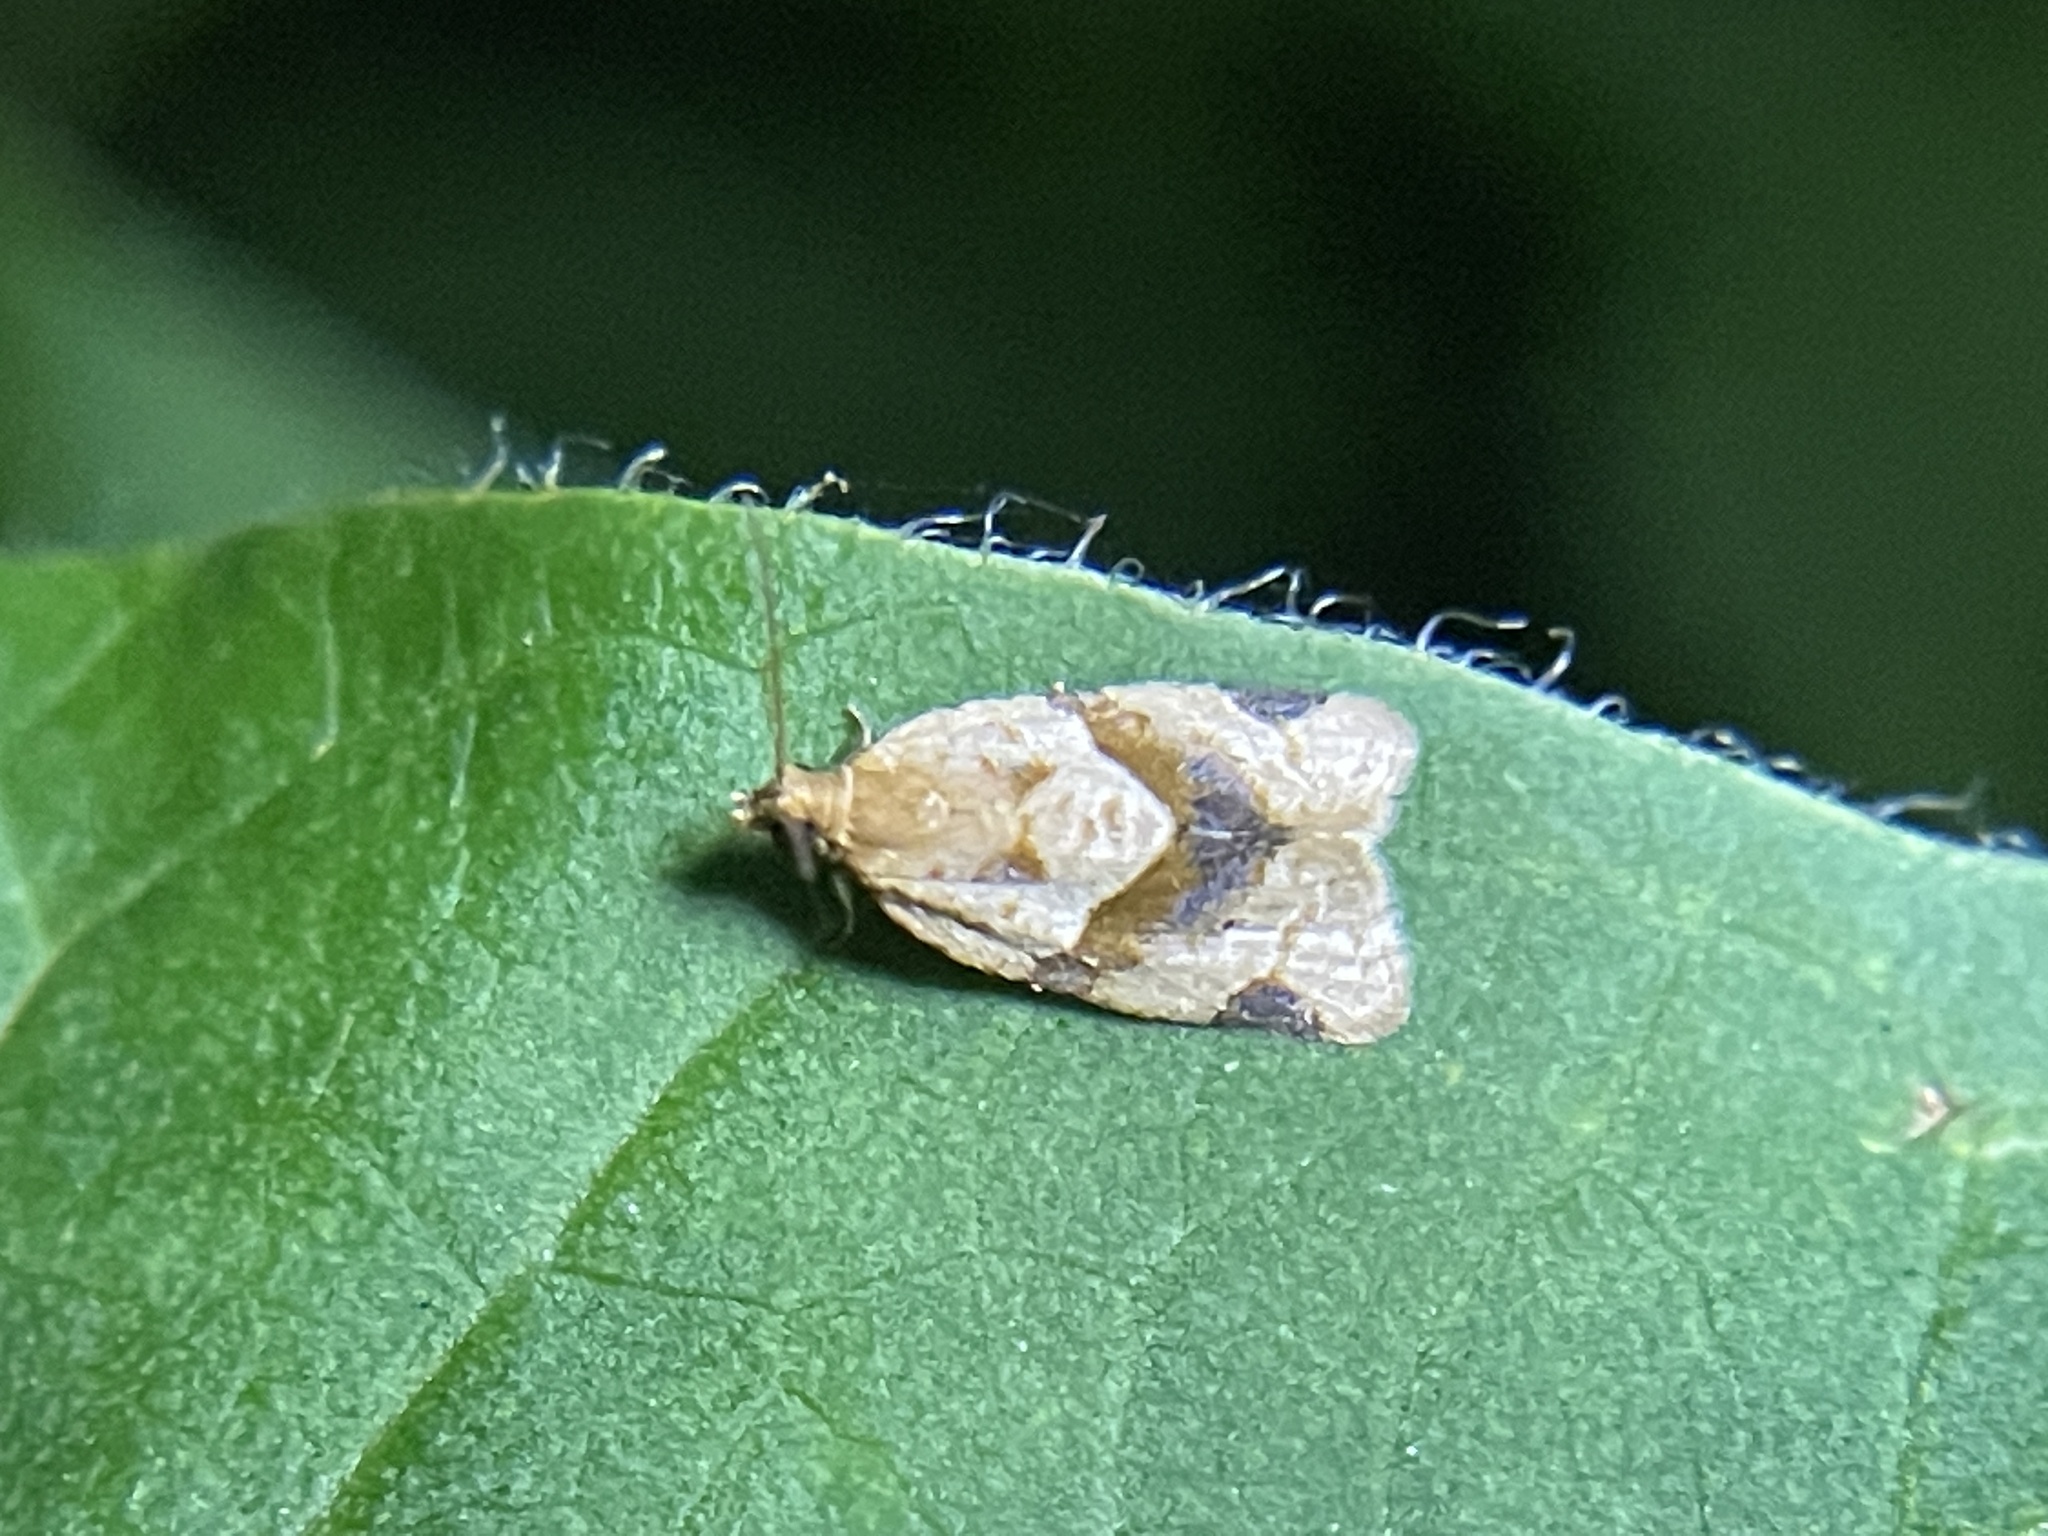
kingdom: Animalia
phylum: Arthropoda
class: Insecta
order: Lepidoptera
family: Tortricidae
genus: Clepsis
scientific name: Clepsis peritana
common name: Garden tortrix
